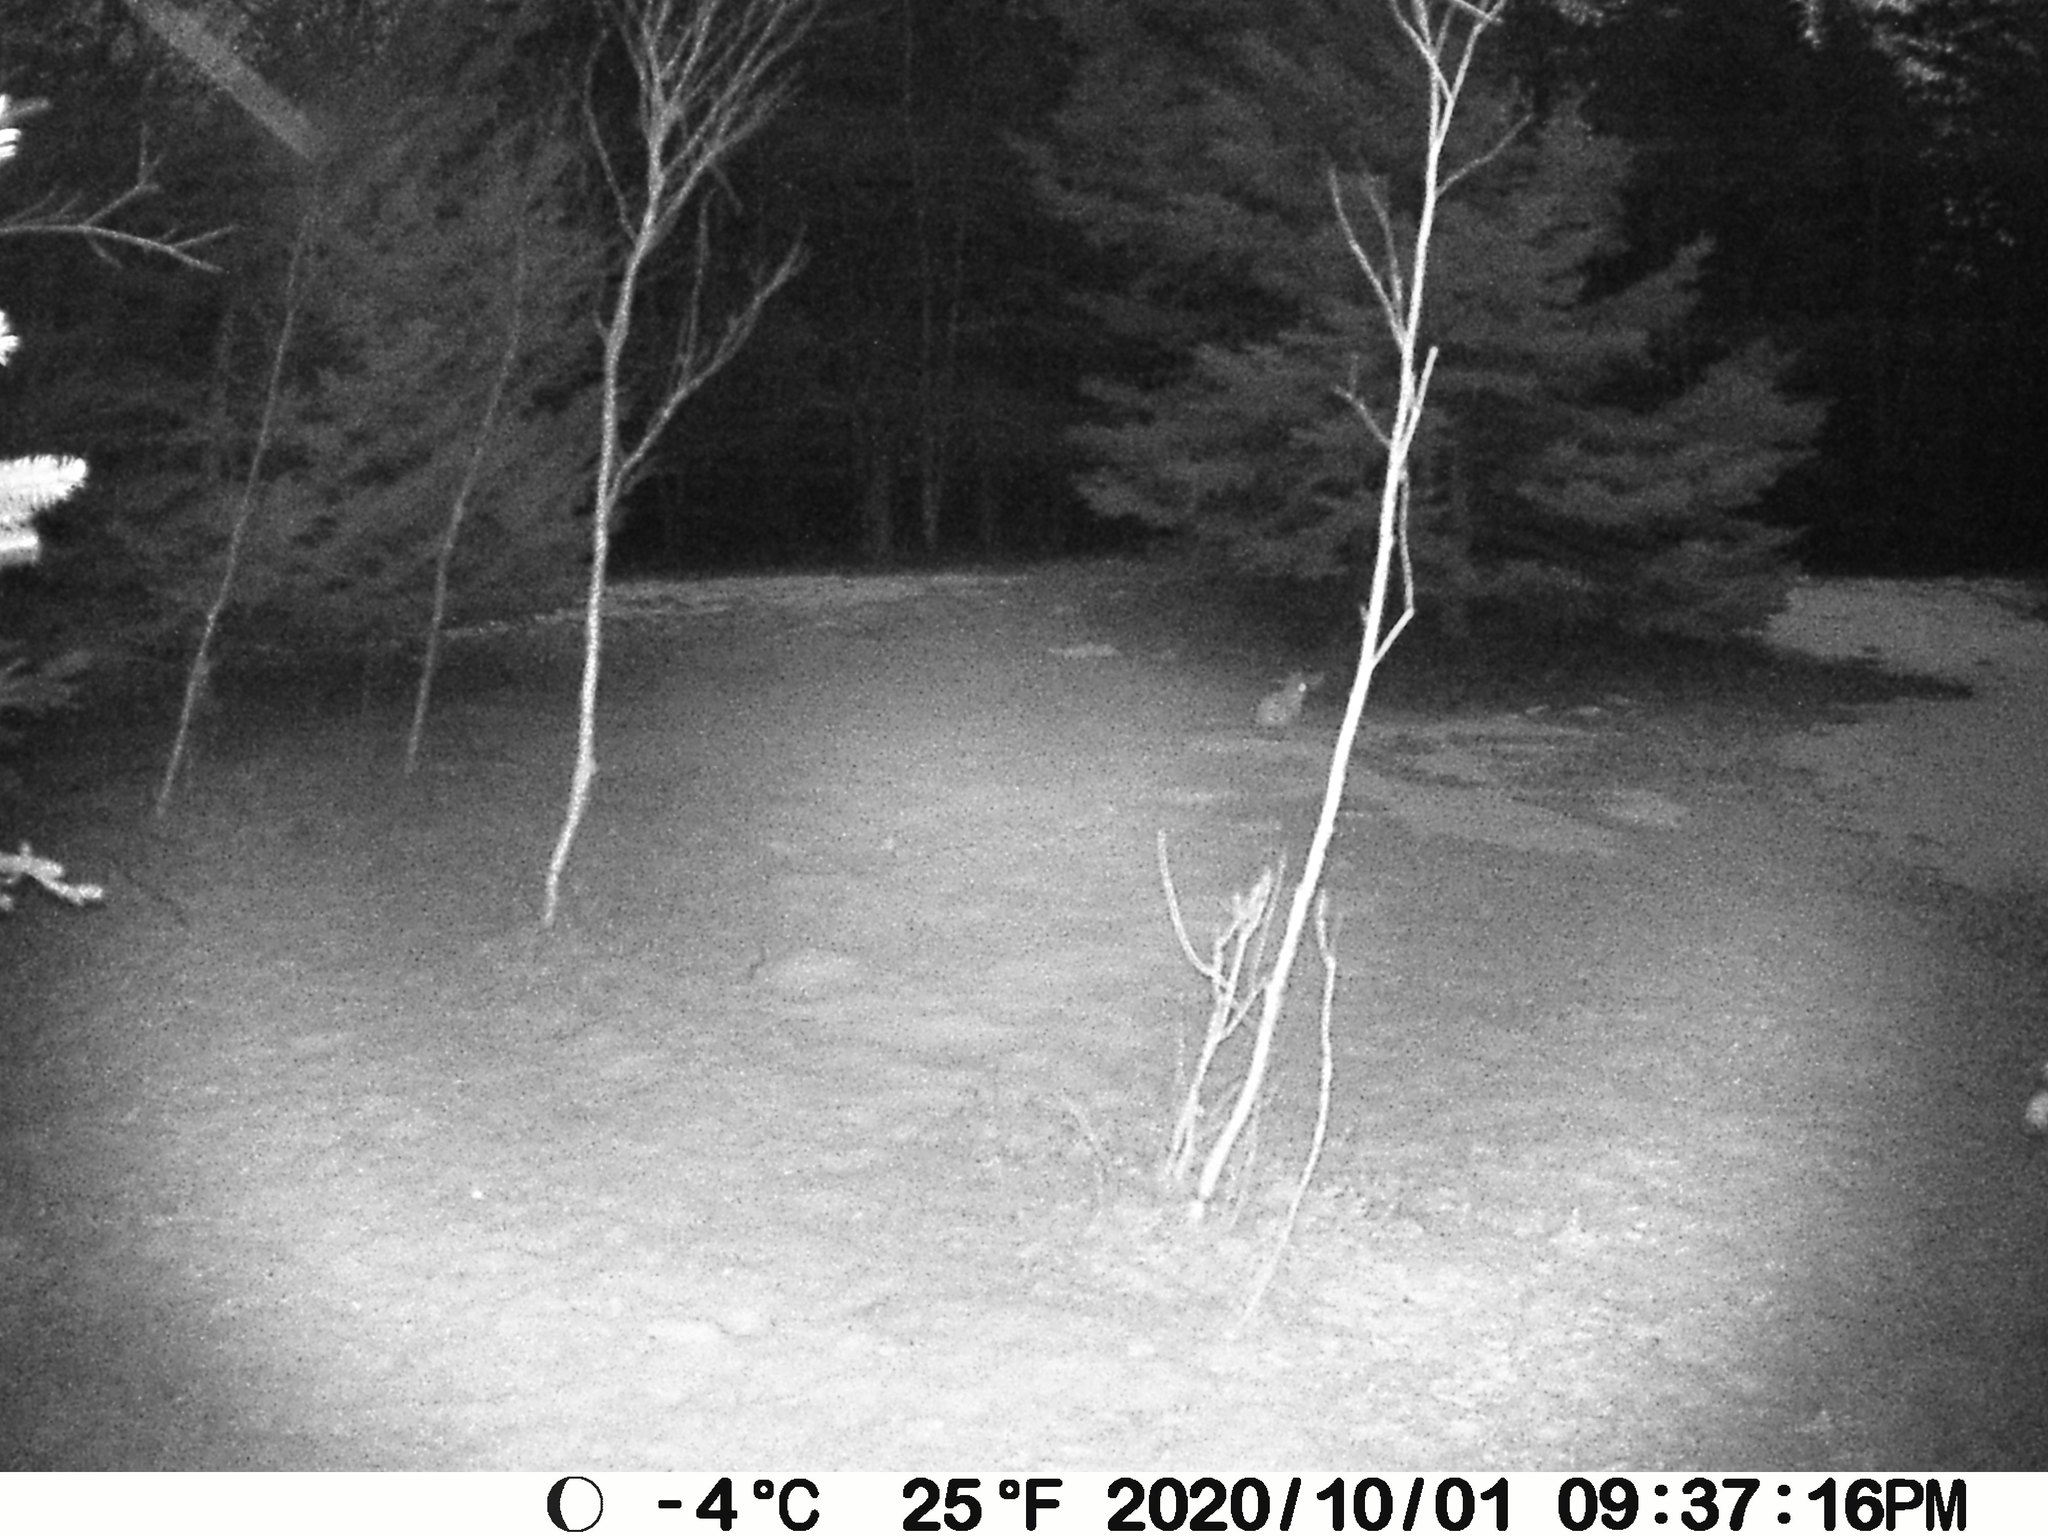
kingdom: Animalia
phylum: Chordata
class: Mammalia
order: Lagomorpha
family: Leporidae
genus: Lepus
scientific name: Lepus americanus
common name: Snowshoe hare
